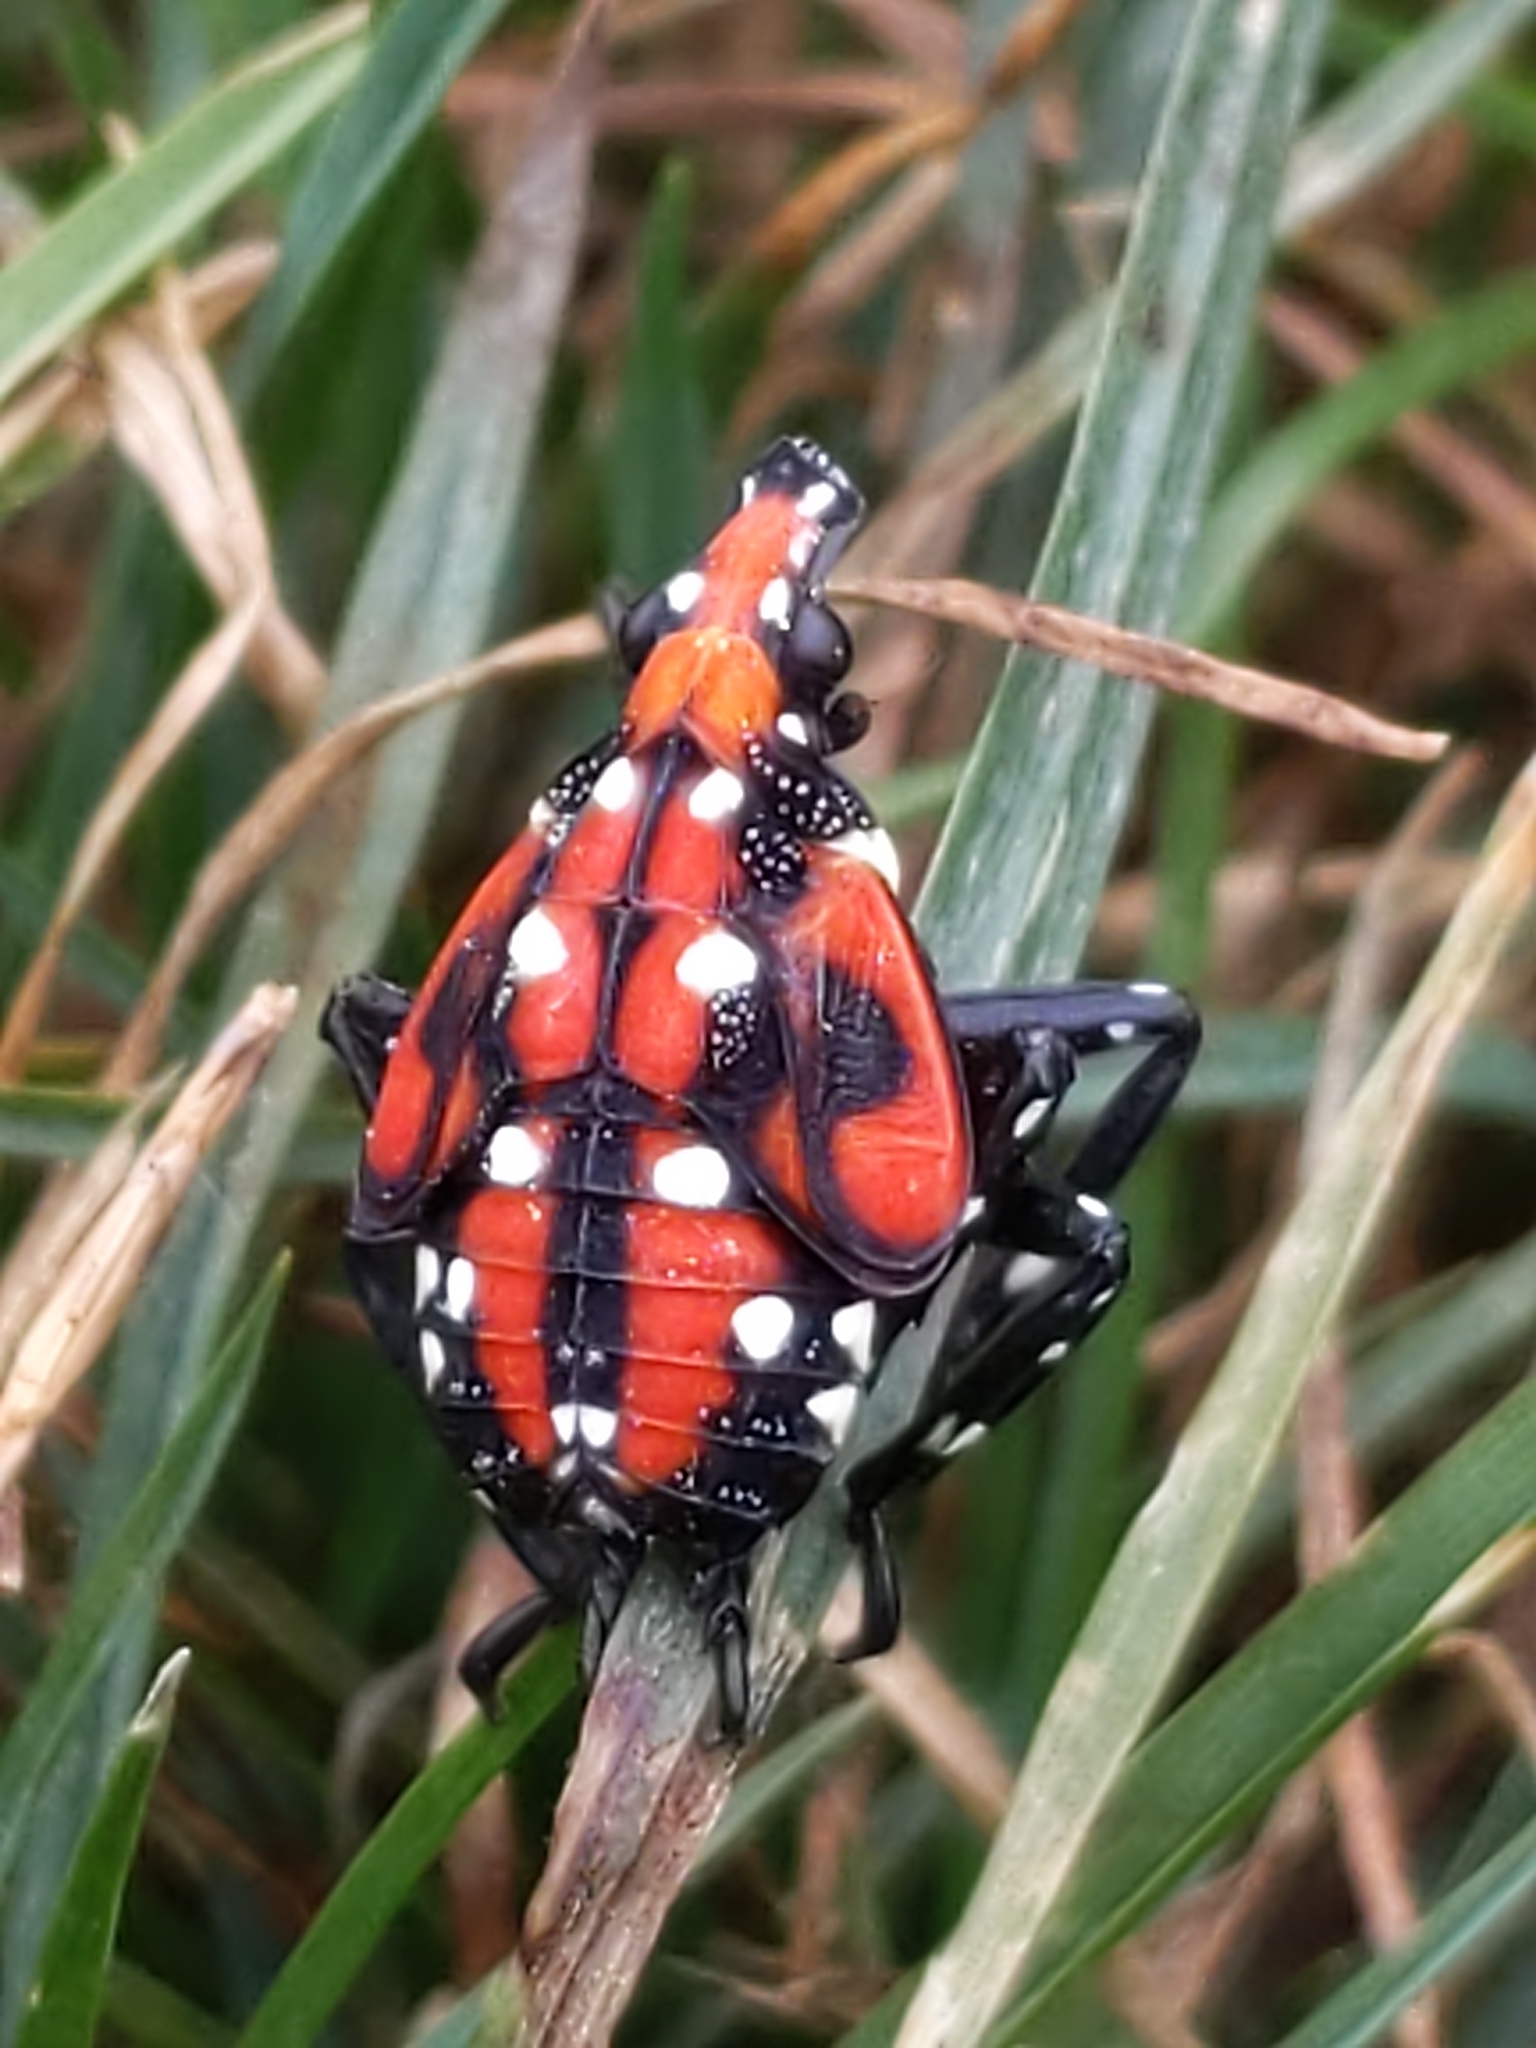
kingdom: Animalia
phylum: Arthropoda
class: Insecta
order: Hemiptera
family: Fulgoridae
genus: Lycorma
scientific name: Lycorma delicatula
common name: Spotted lanternfly
